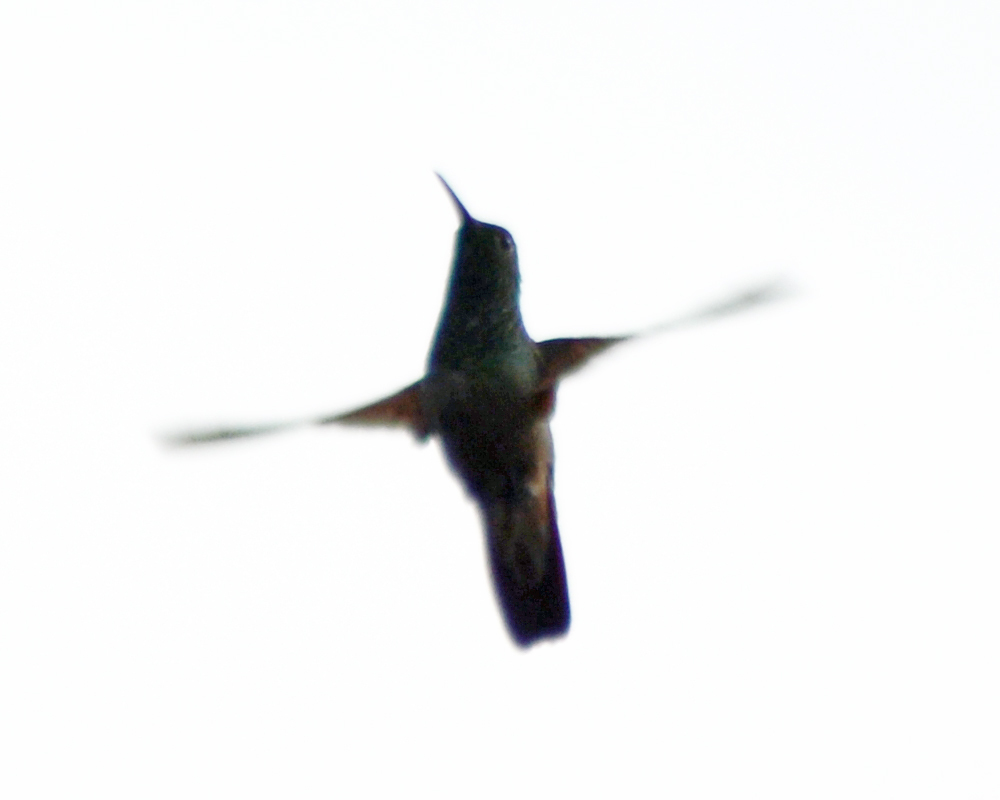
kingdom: Animalia
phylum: Chordata
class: Aves
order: Apodiformes
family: Trochilidae
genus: Saucerottia
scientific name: Saucerottia beryllina
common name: Berylline hummingbird
